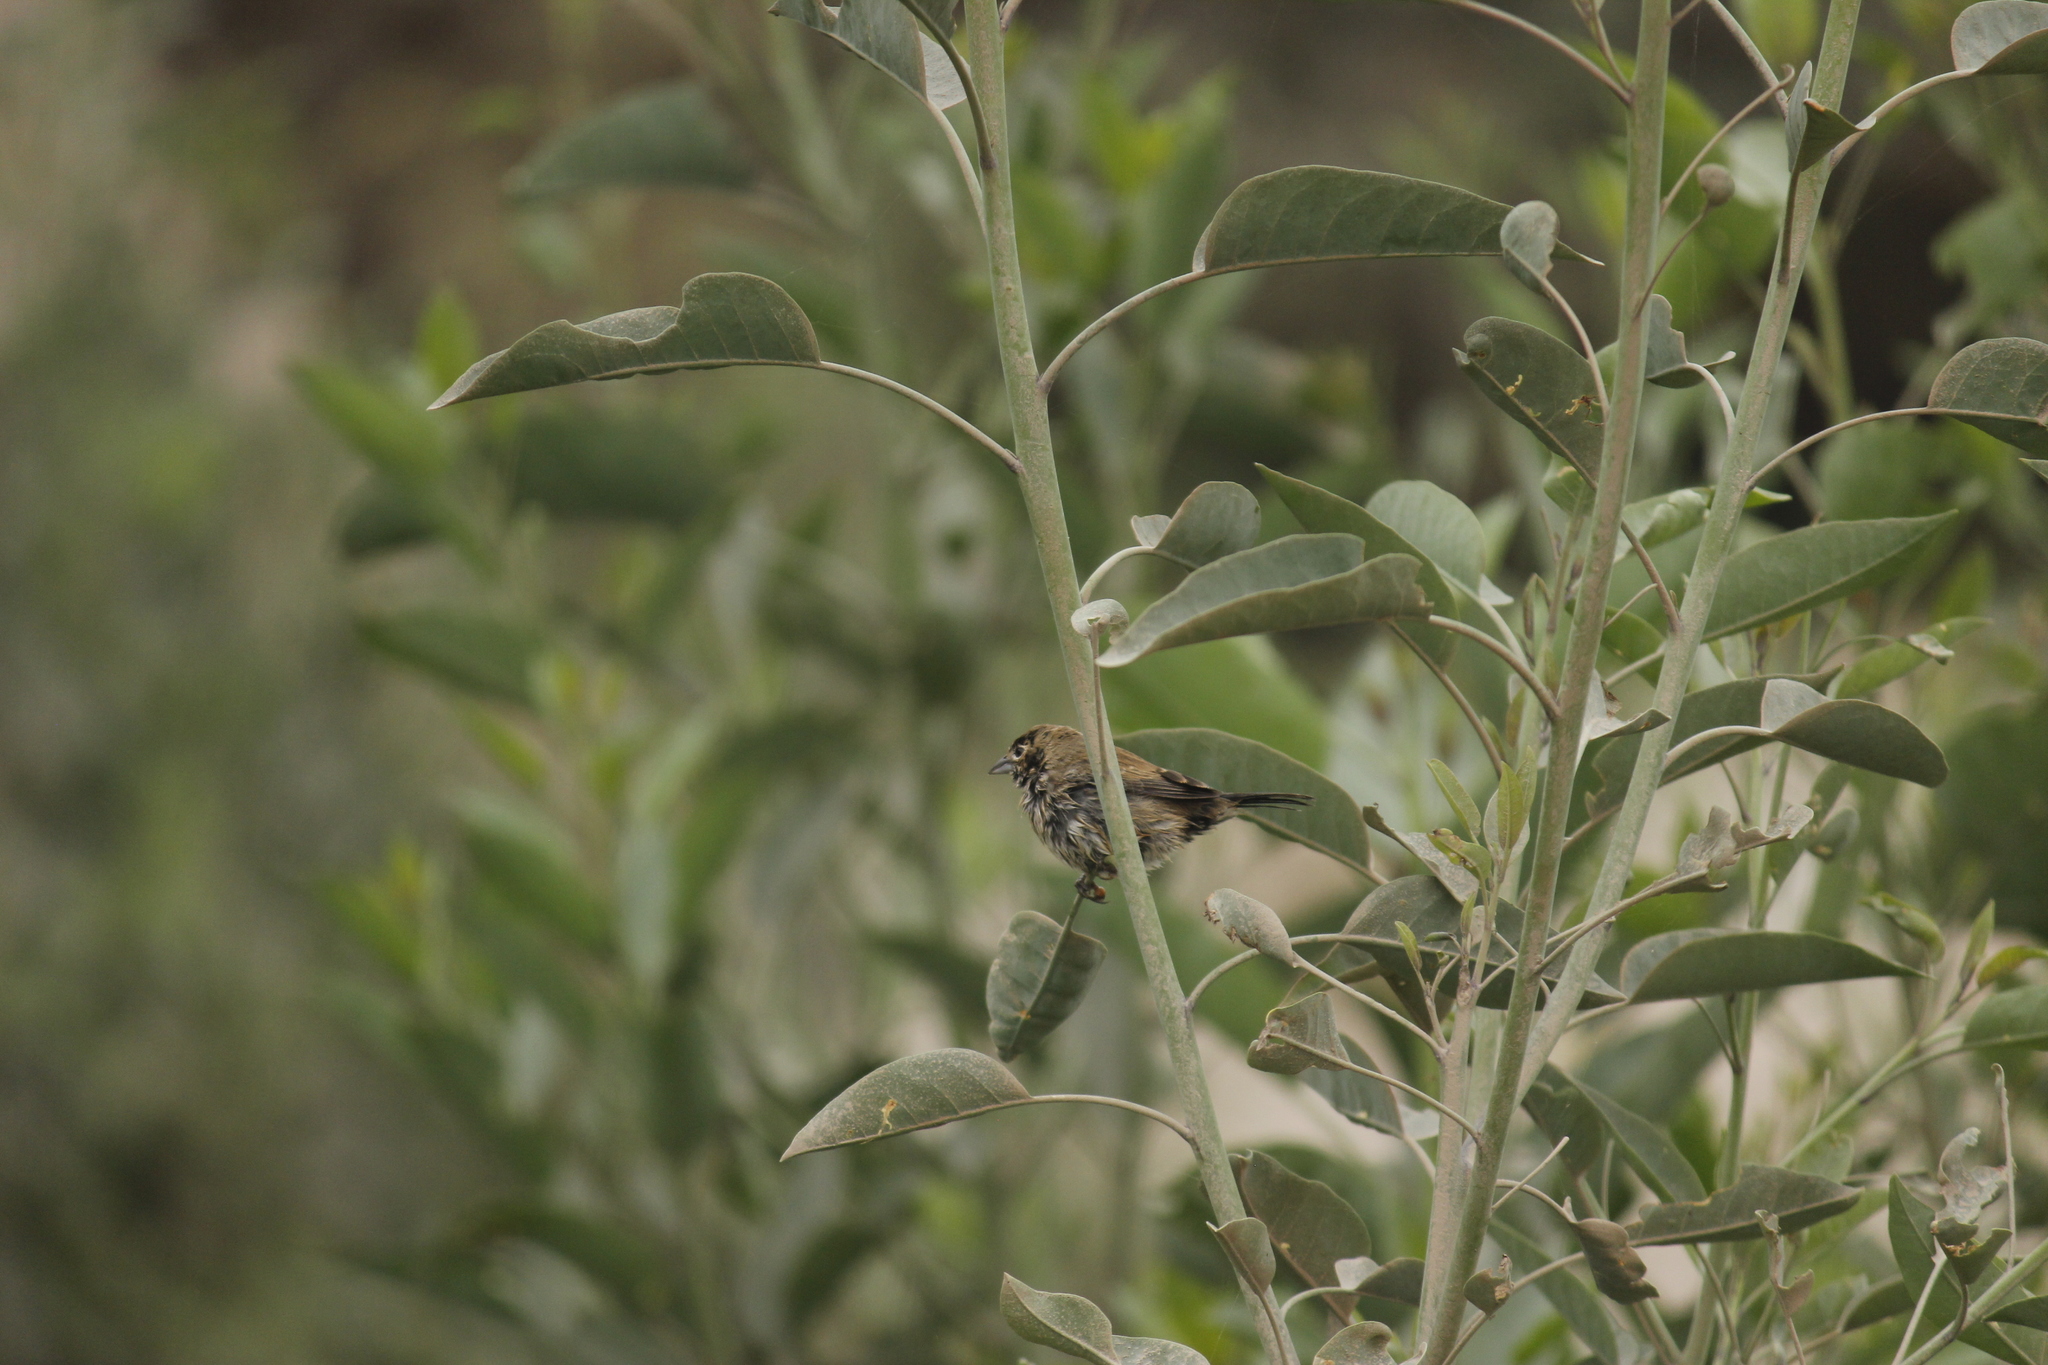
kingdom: Animalia
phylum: Chordata
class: Aves
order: Passeriformes
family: Thraupidae
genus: Volatinia
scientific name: Volatinia jacarina
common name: Blue-black grassquit
